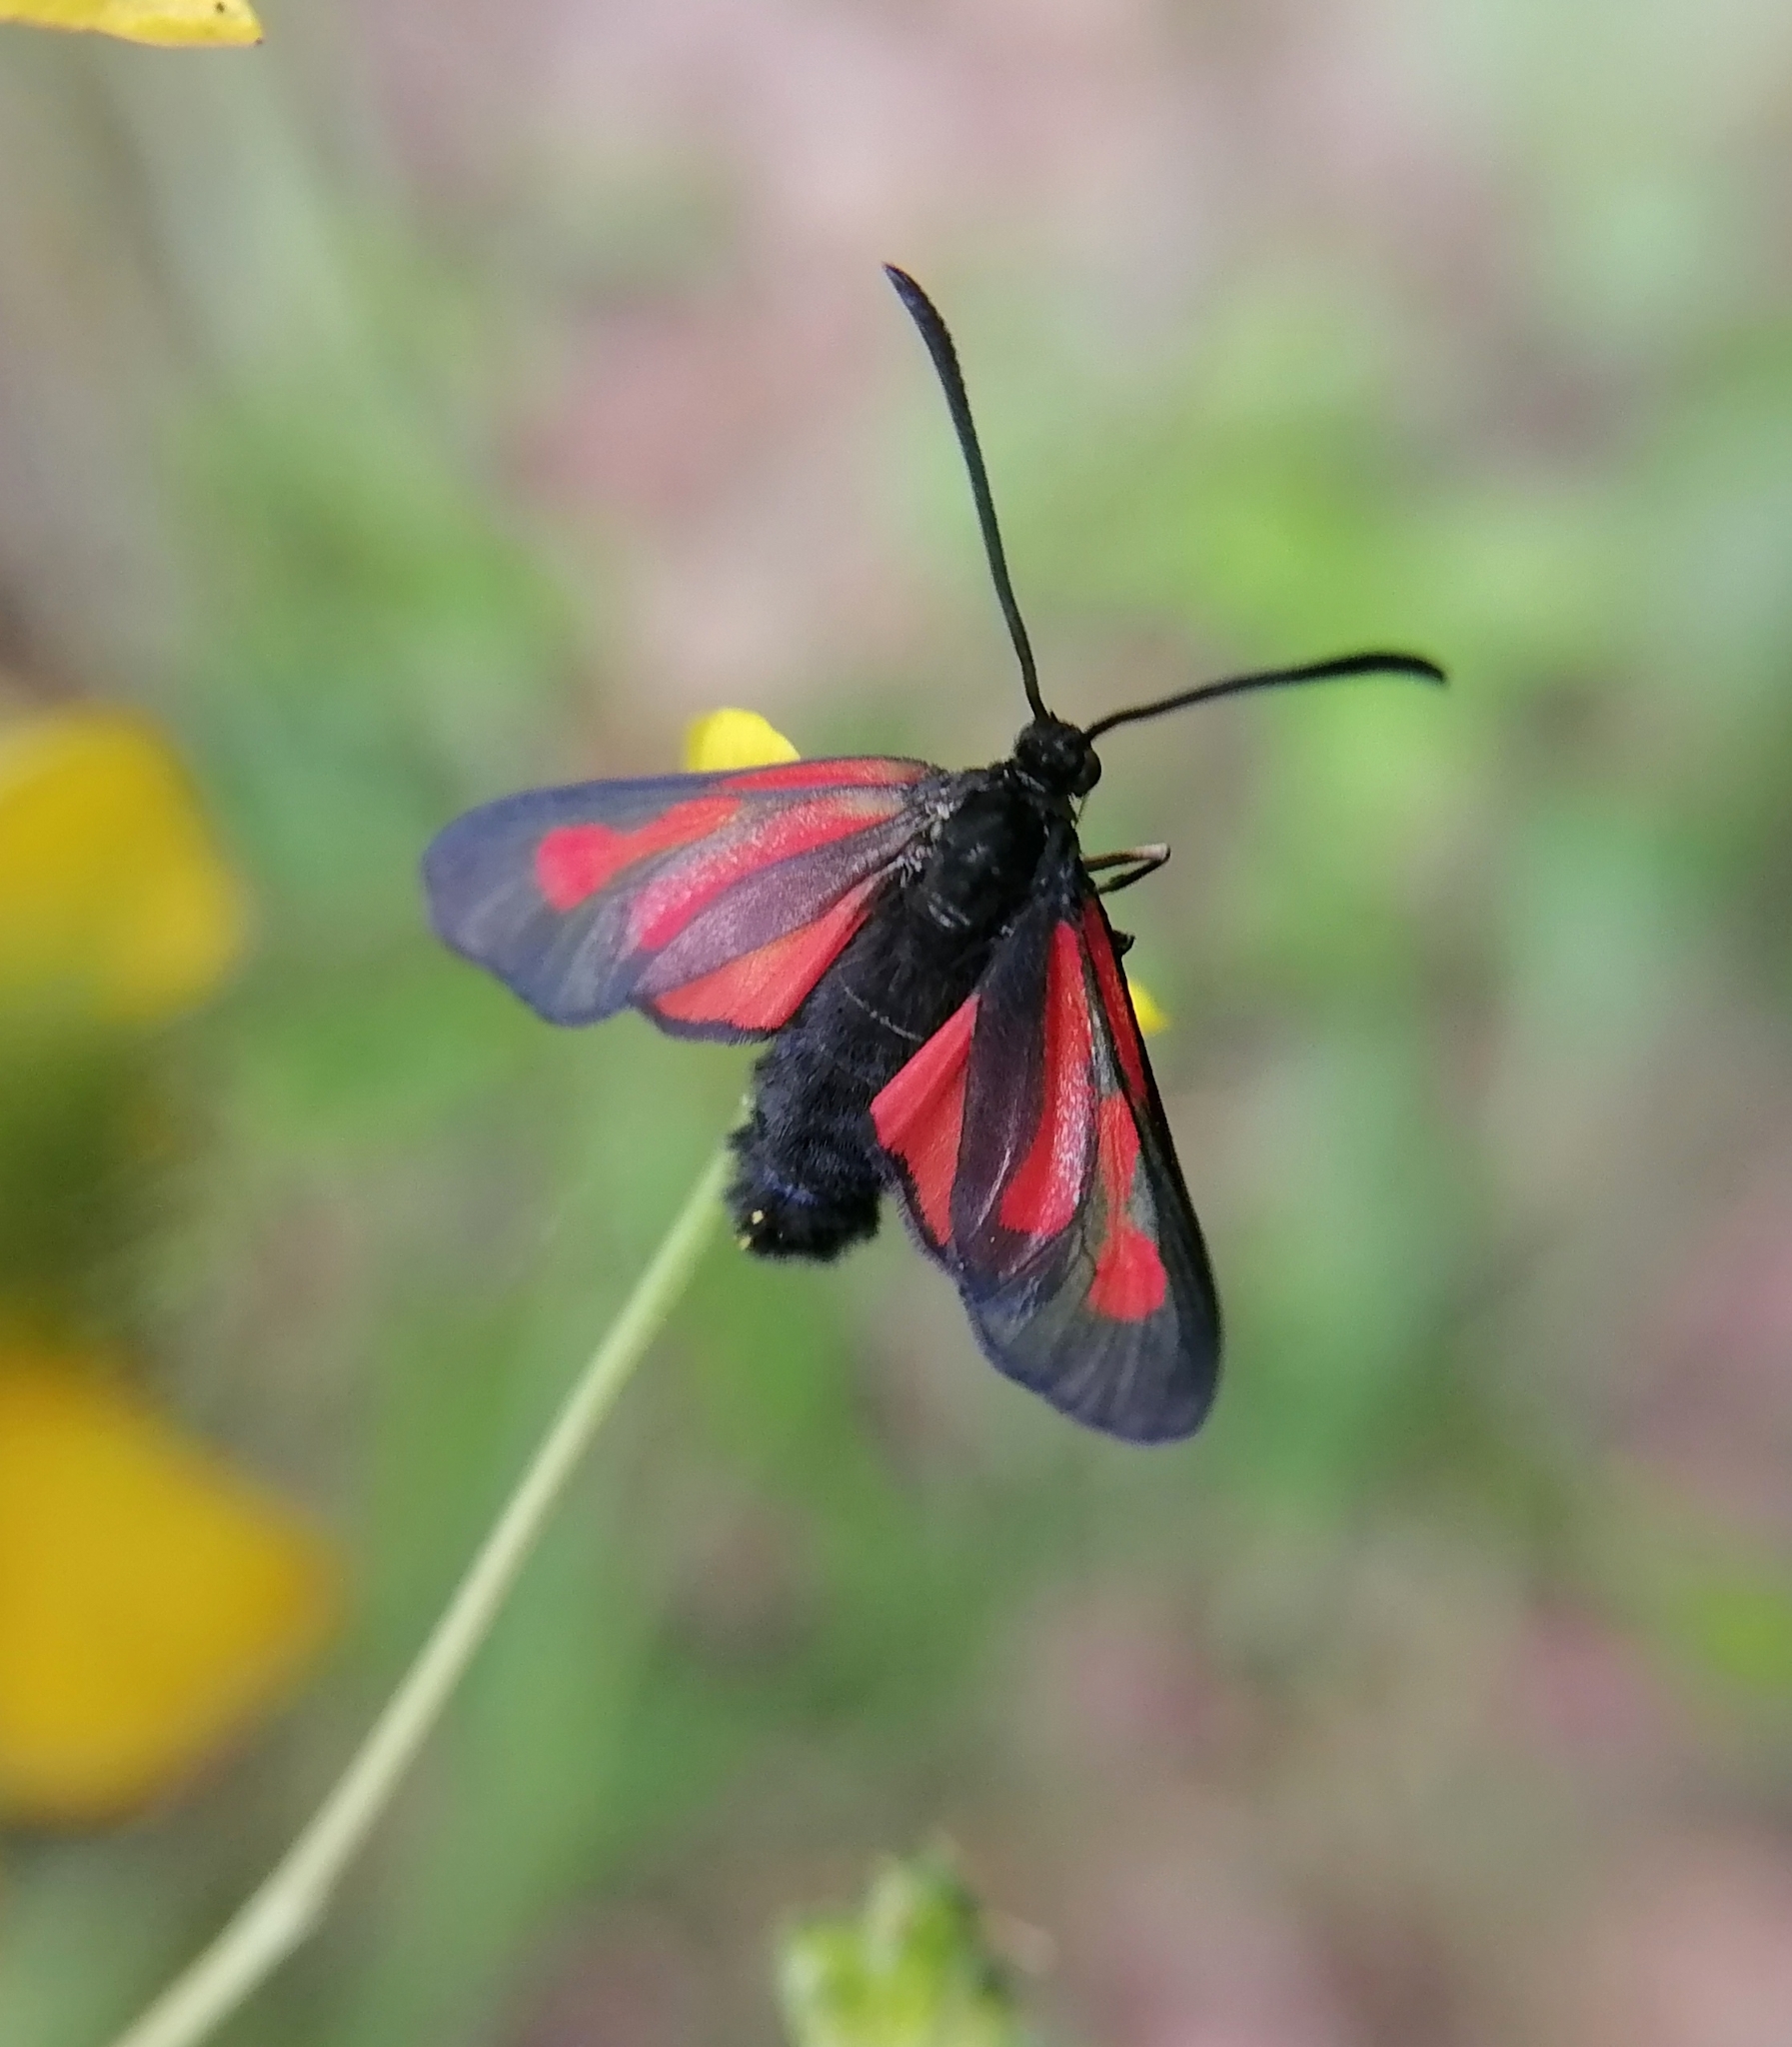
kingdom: Animalia
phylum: Arthropoda
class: Insecta
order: Lepidoptera
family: Zygaenidae
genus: Zygaena
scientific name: Zygaena osterodensis
